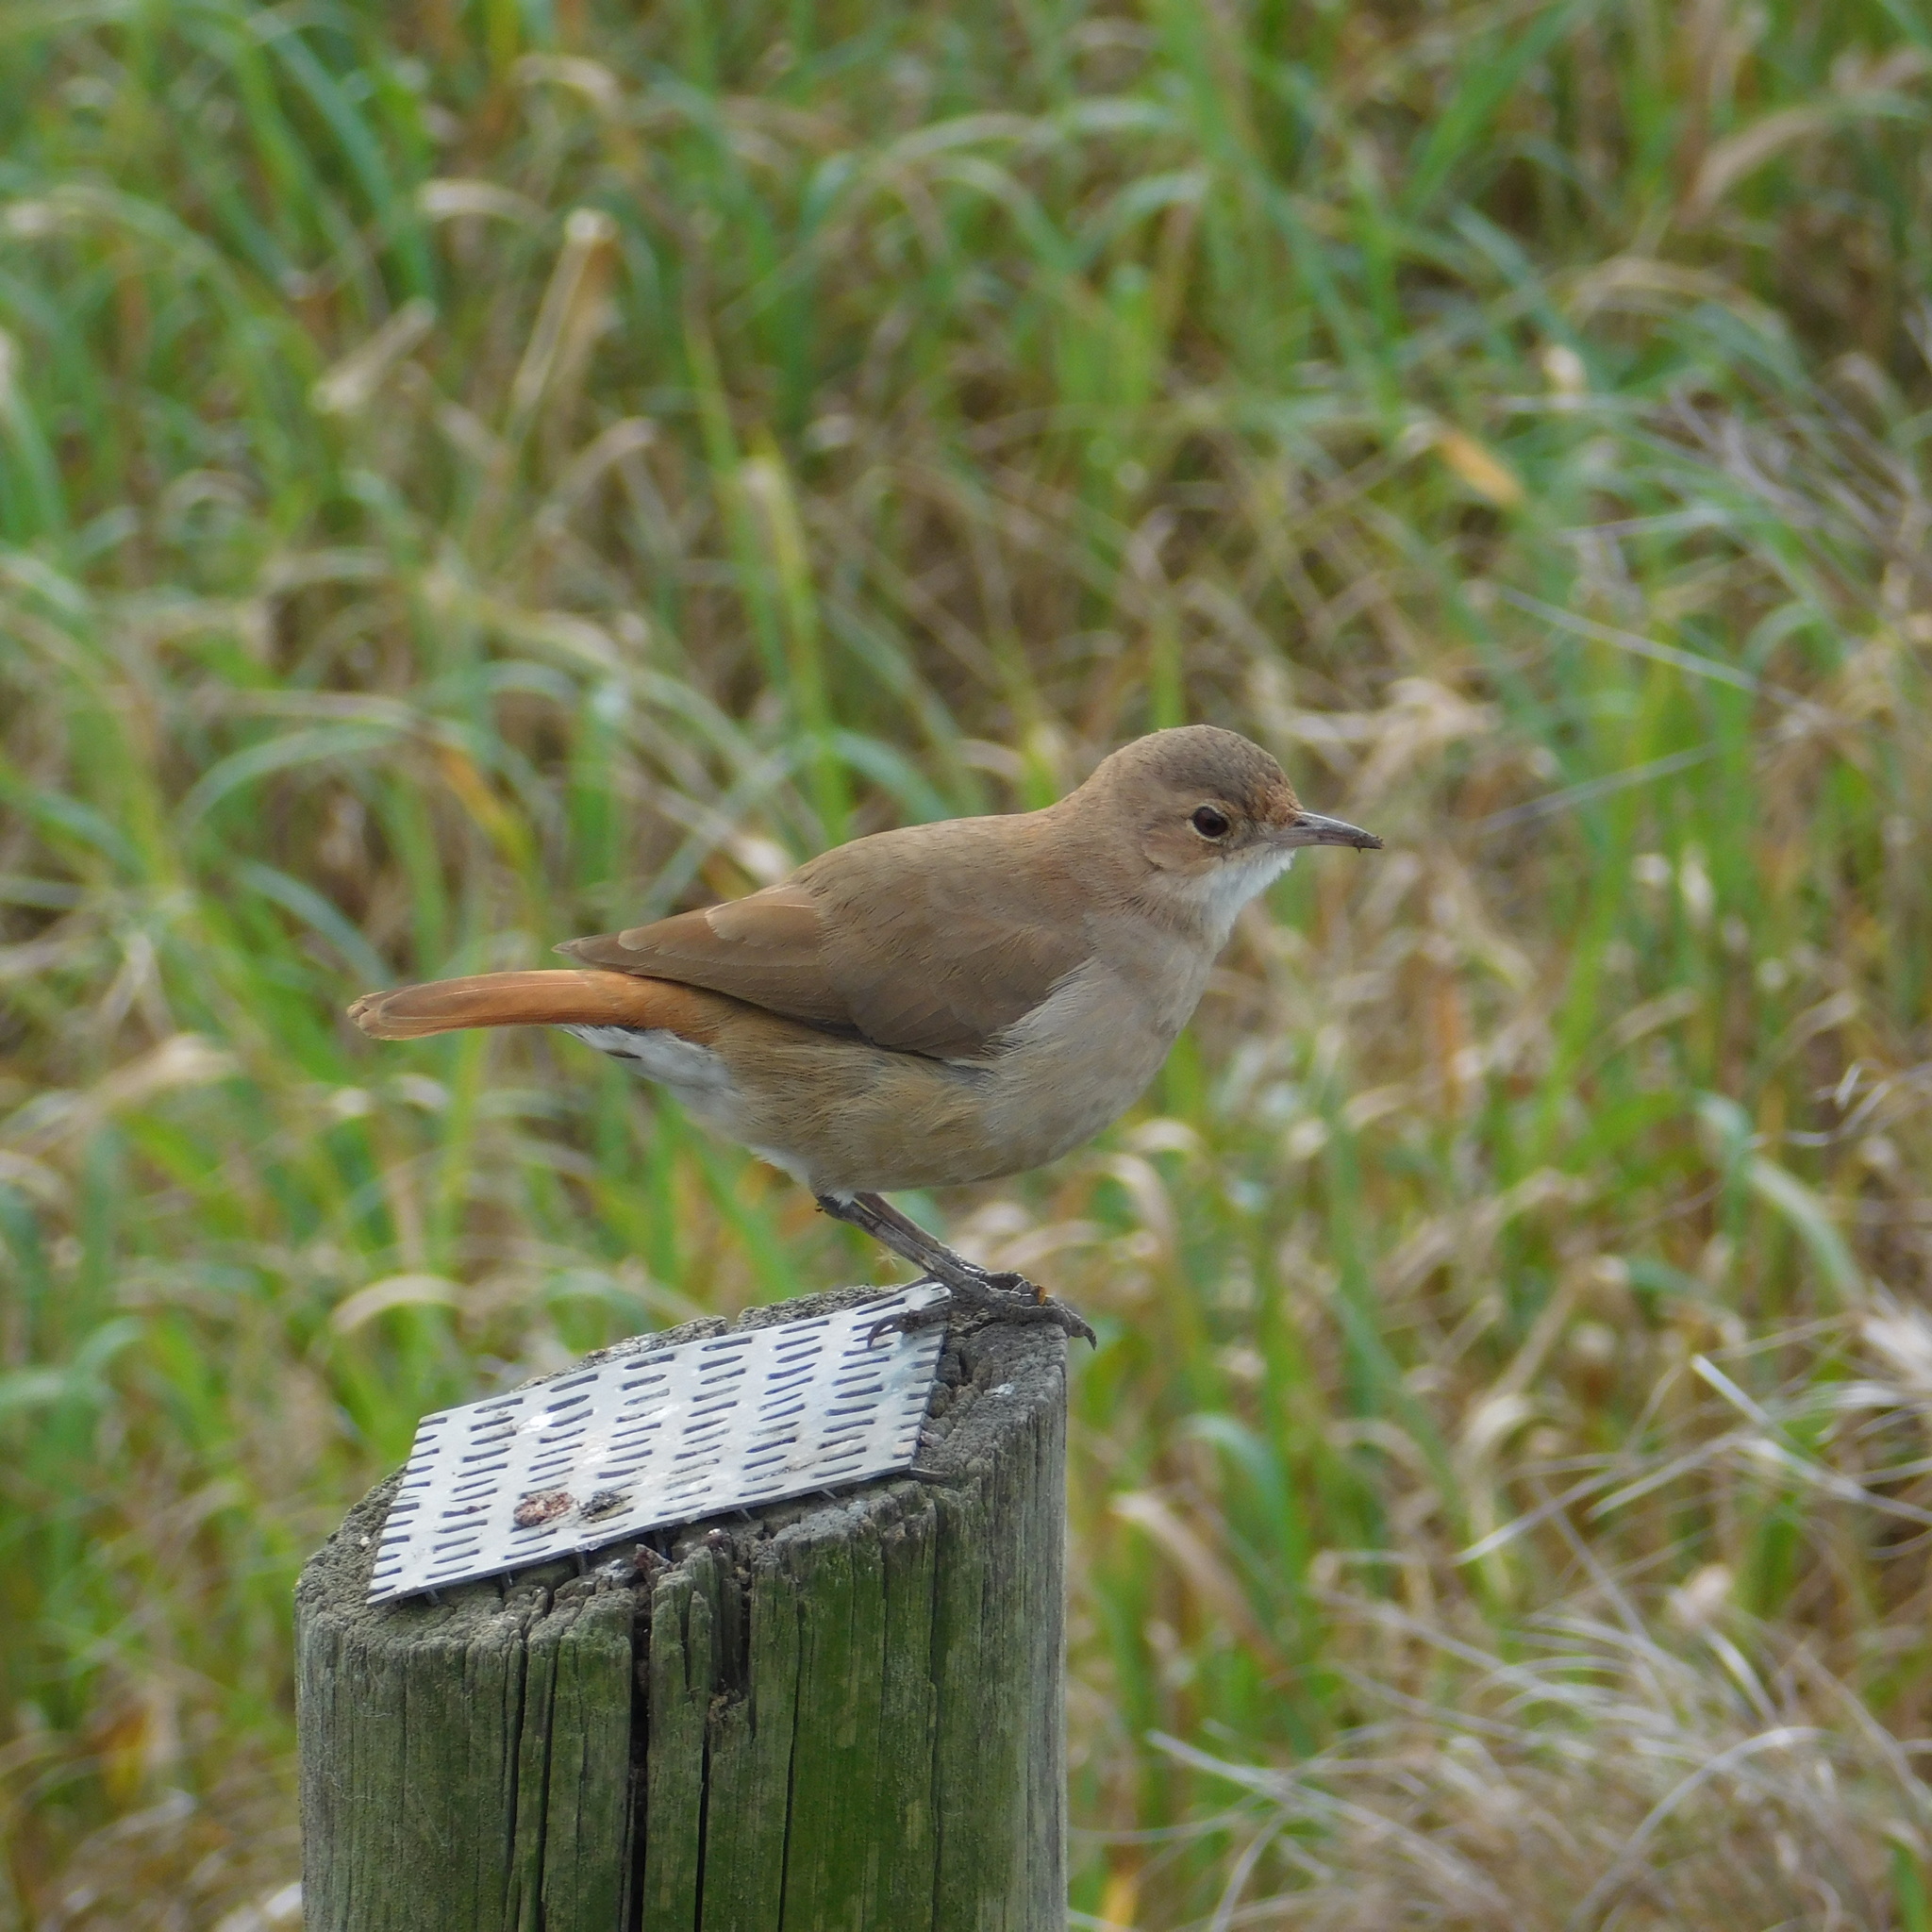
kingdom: Animalia
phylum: Chordata
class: Aves
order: Passeriformes
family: Furnariidae
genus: Furnarius
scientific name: Furnarius rufus
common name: Rufous hornero
